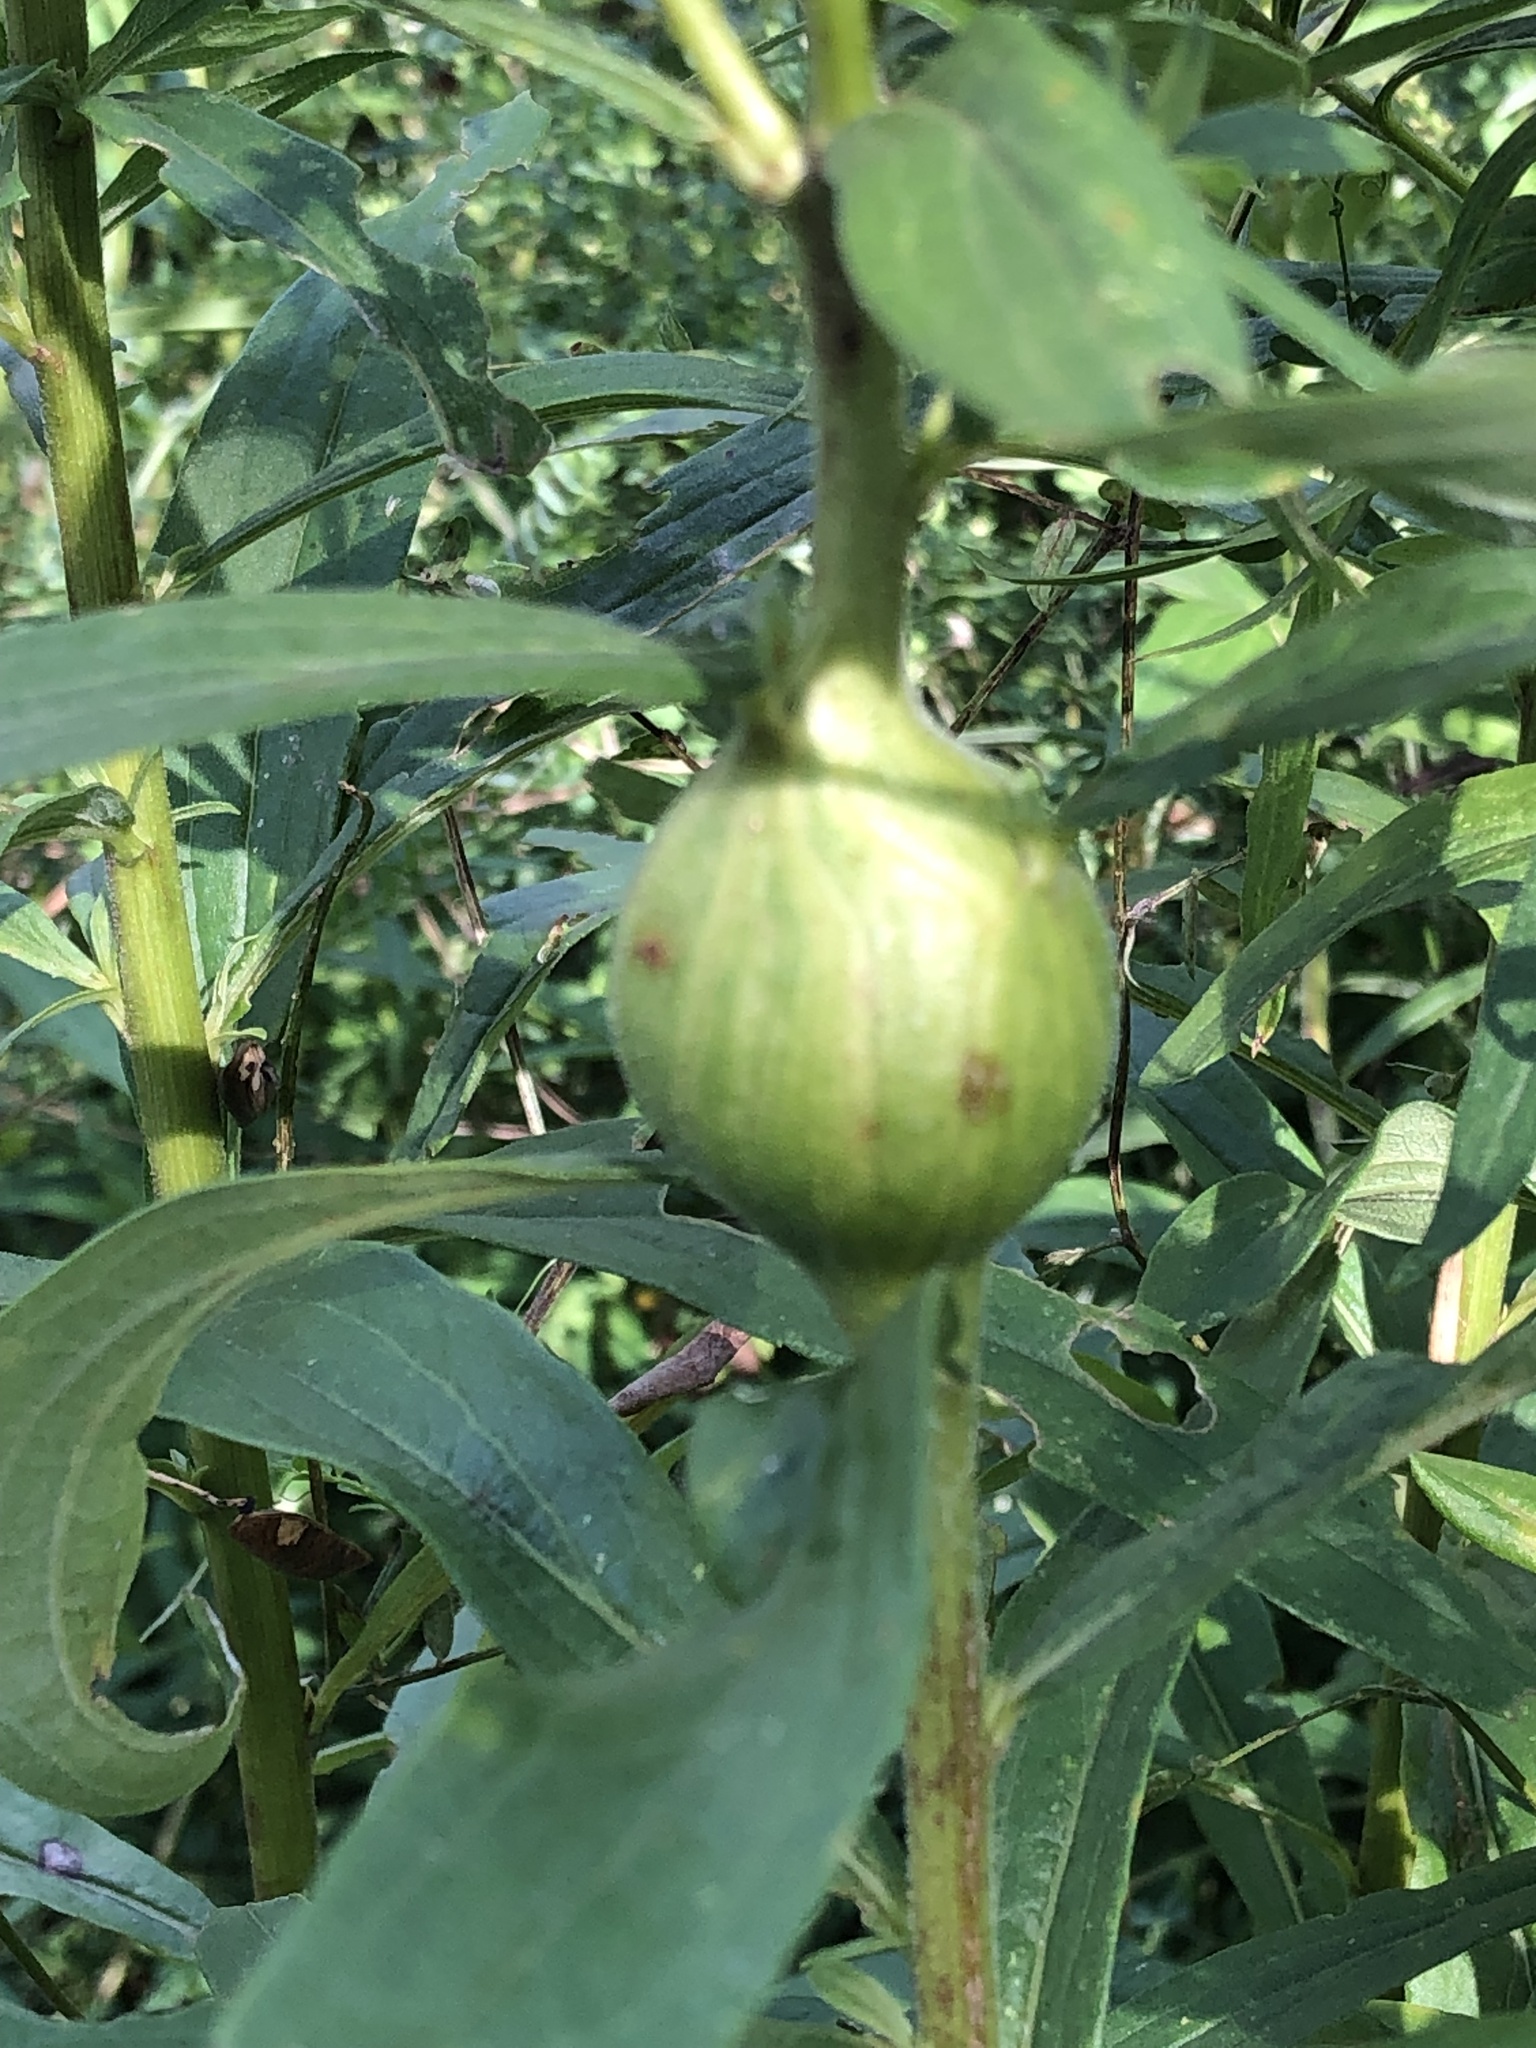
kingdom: Animalia
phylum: Arthropoda
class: Insecta
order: Diptera
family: Tephritidae
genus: Eurosta
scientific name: Eurosta solidaginis
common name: Goldenrod gall fly
